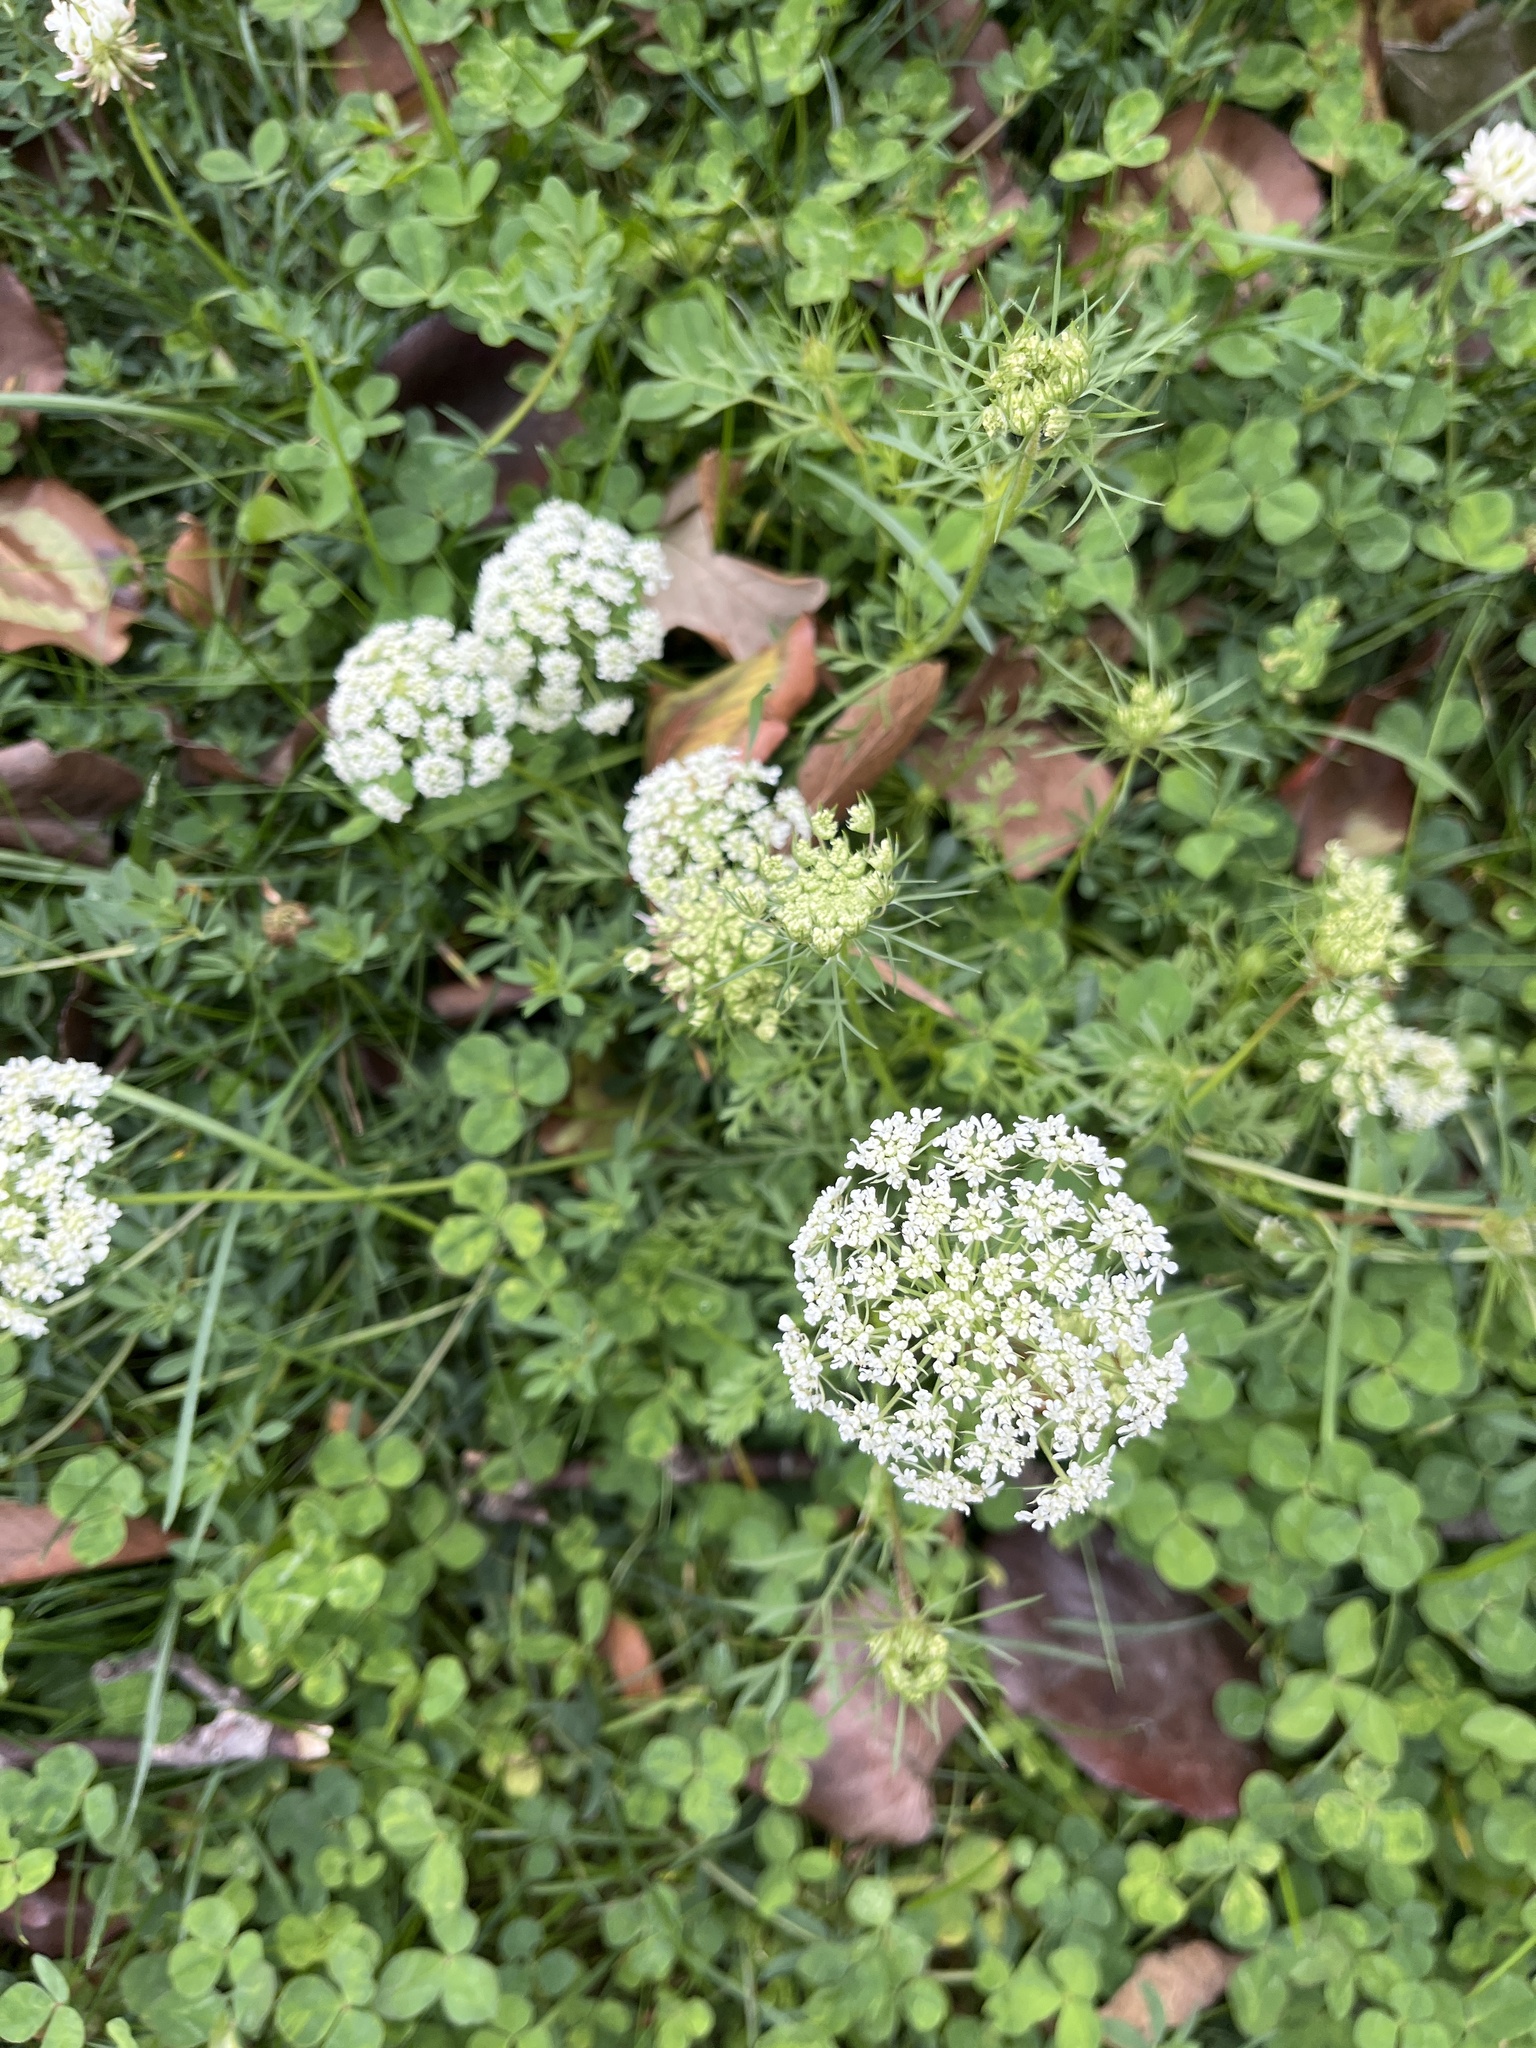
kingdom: Plantae
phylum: Tracheophyta
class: Magnoliopsida
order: Apiales
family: Apiaceae
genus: Daucus
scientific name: Daucus carota
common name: Wild carrot
